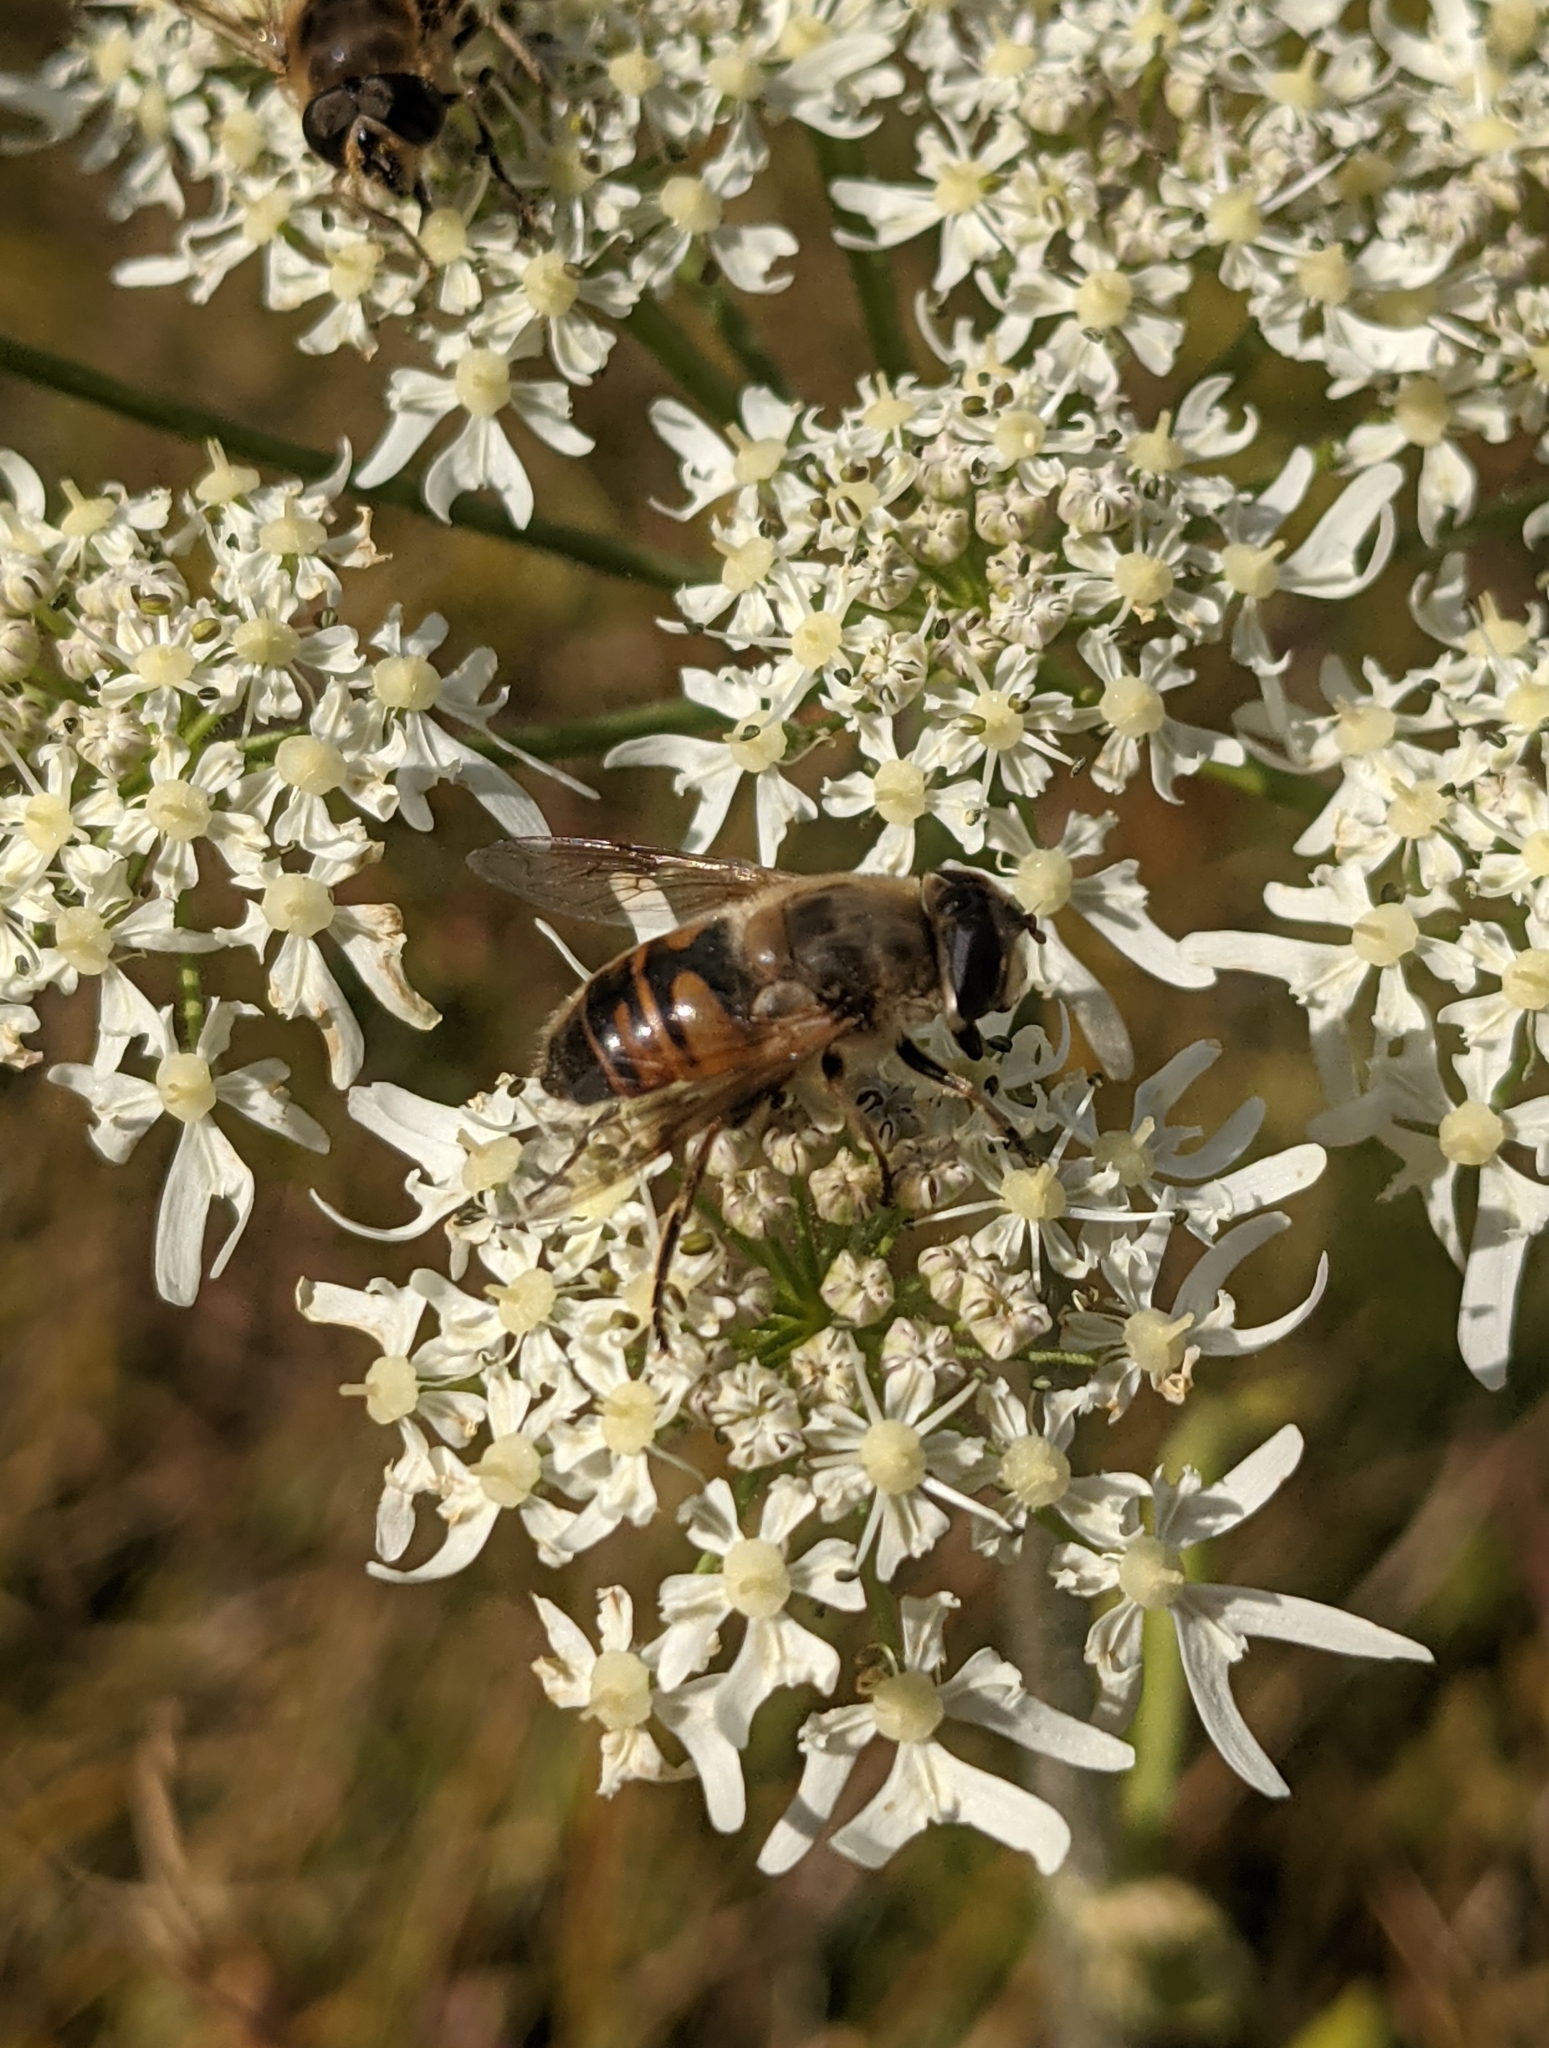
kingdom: Animalia
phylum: Arthropoda
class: Insecta
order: Diptera
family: Syrphidae
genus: Eristalis
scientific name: Eristalis tenax
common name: Drone fly
